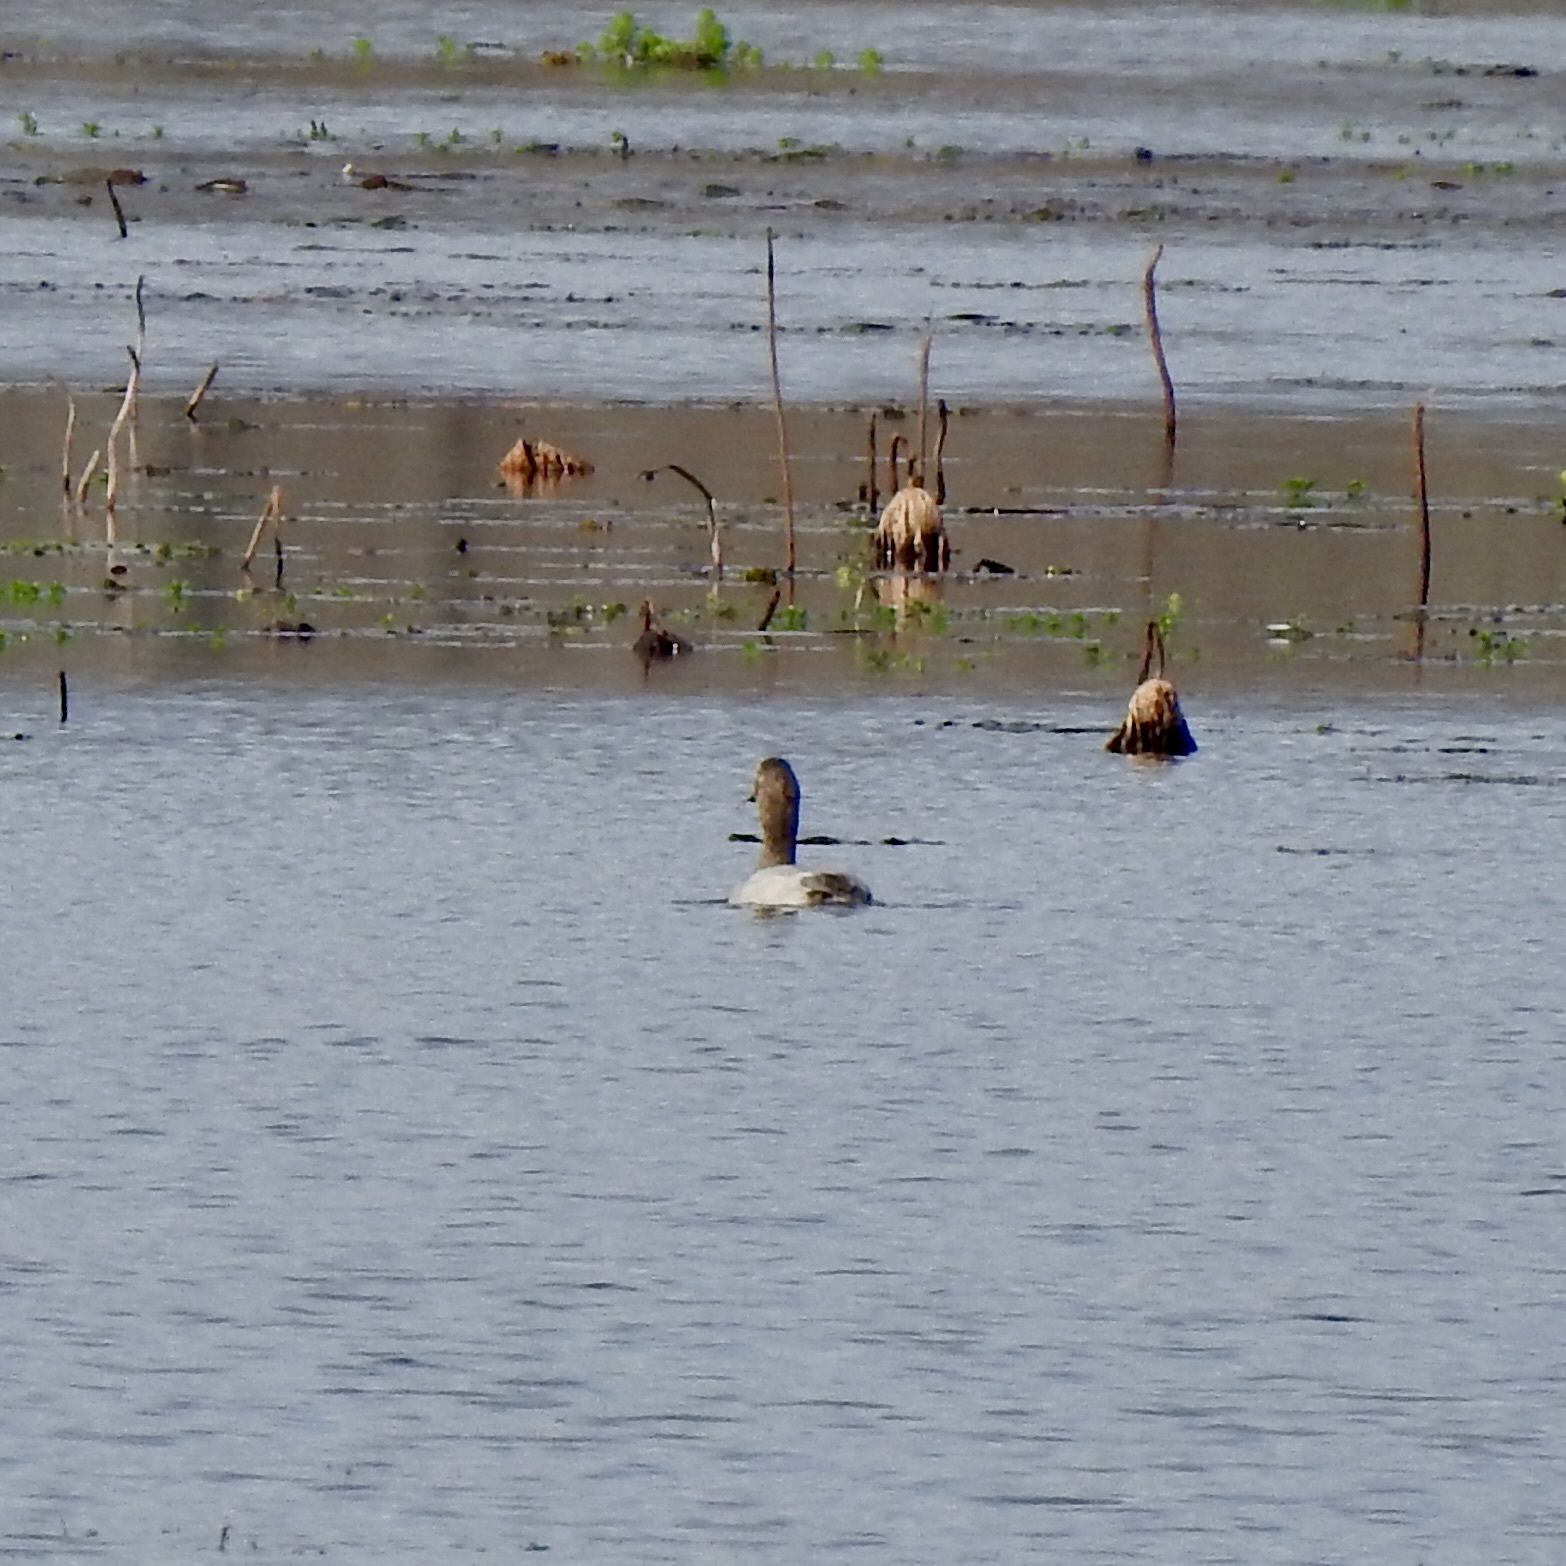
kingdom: Animalia
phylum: Chordata
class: Aves
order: Anseriformes
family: Anatidae
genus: Aythya
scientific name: Aythya valisineria
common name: Canvasback
